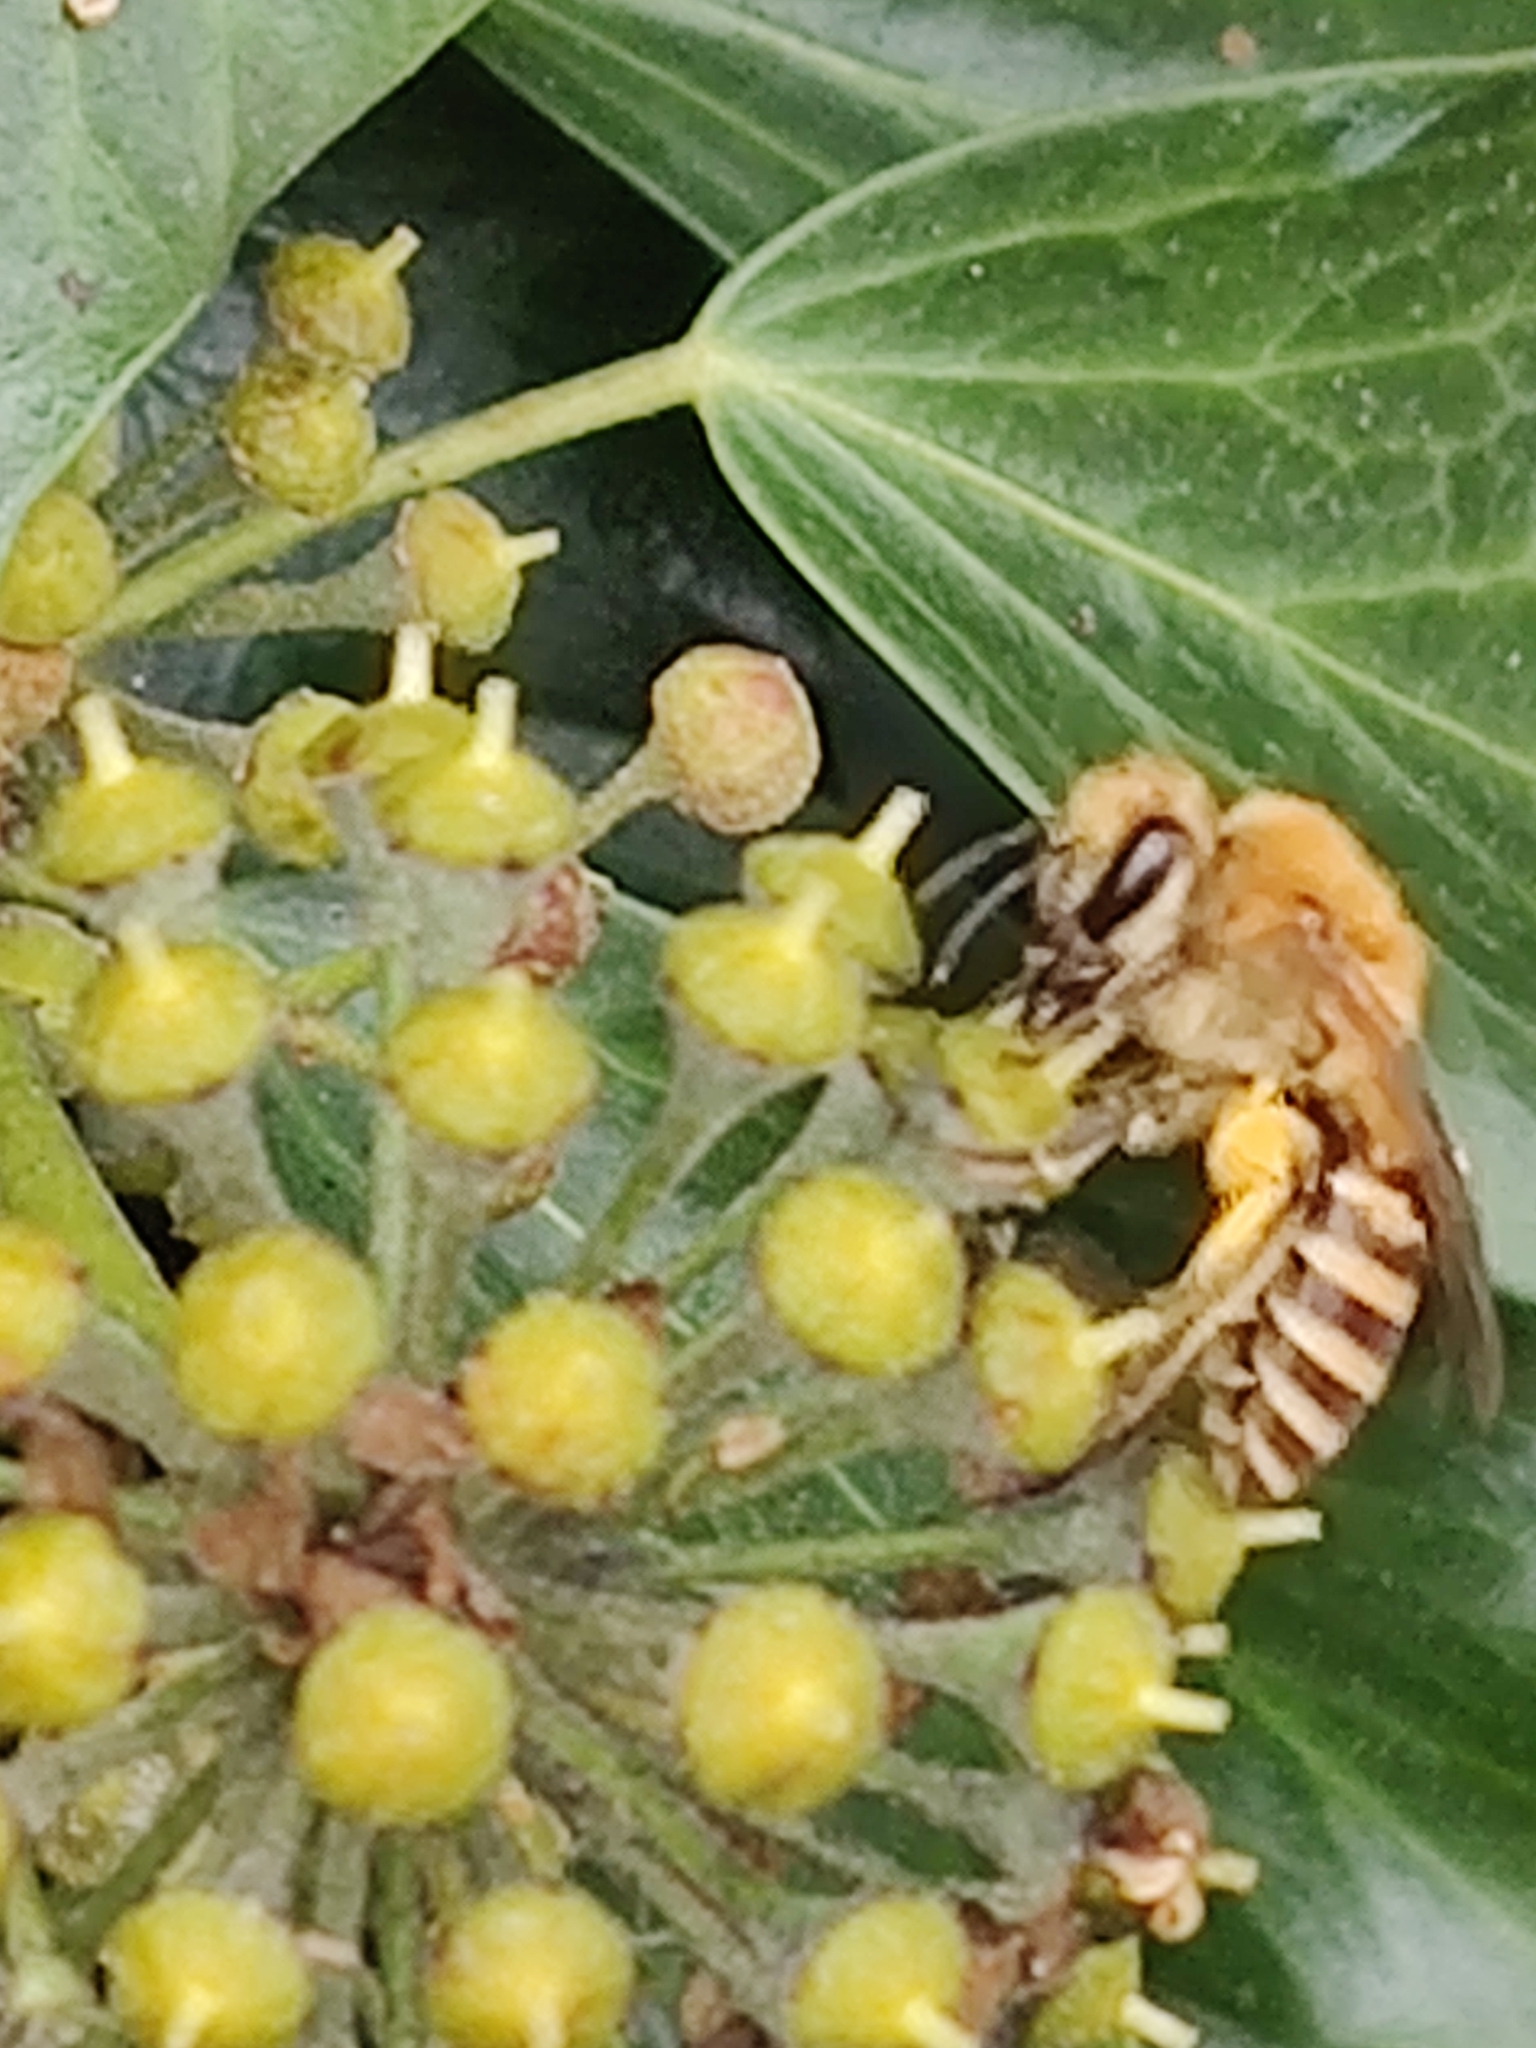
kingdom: Animalia
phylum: Arthropoda
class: Insecta
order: Hymenoptera
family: Colletidae
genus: Colletes
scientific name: Colletes hederae
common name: Ivy bee
